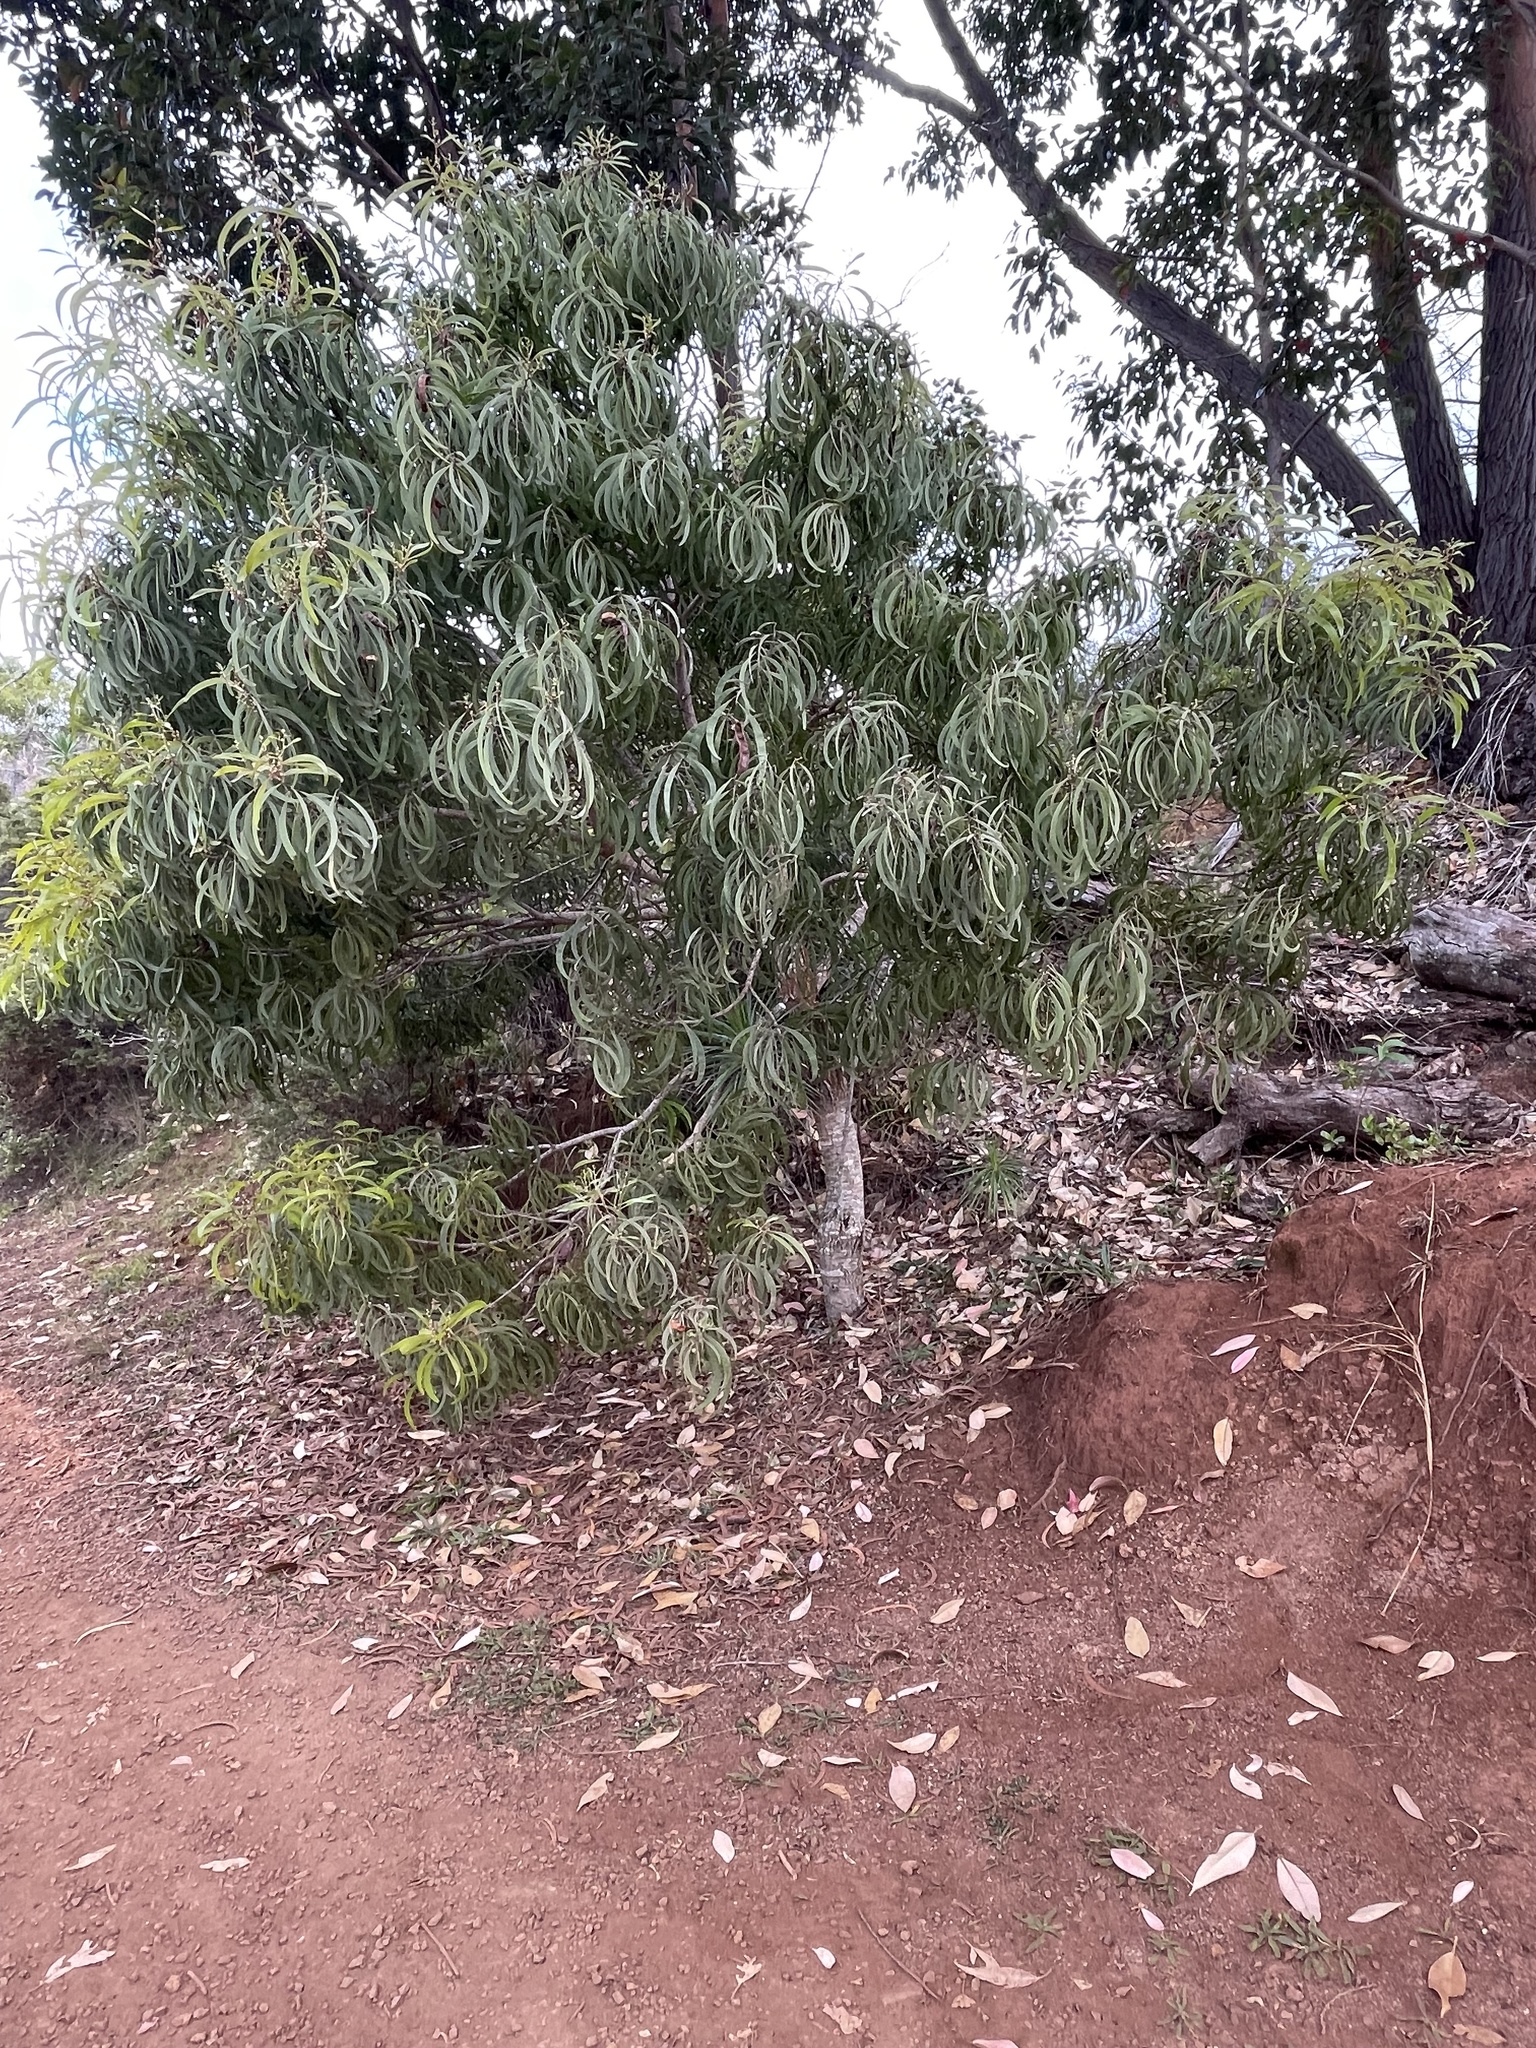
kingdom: Plantae
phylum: Tracheophyta
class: Magnoliopsida
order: Fabales
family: Fabaceae
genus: Acacia
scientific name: Acacia koa
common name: Gray koa
